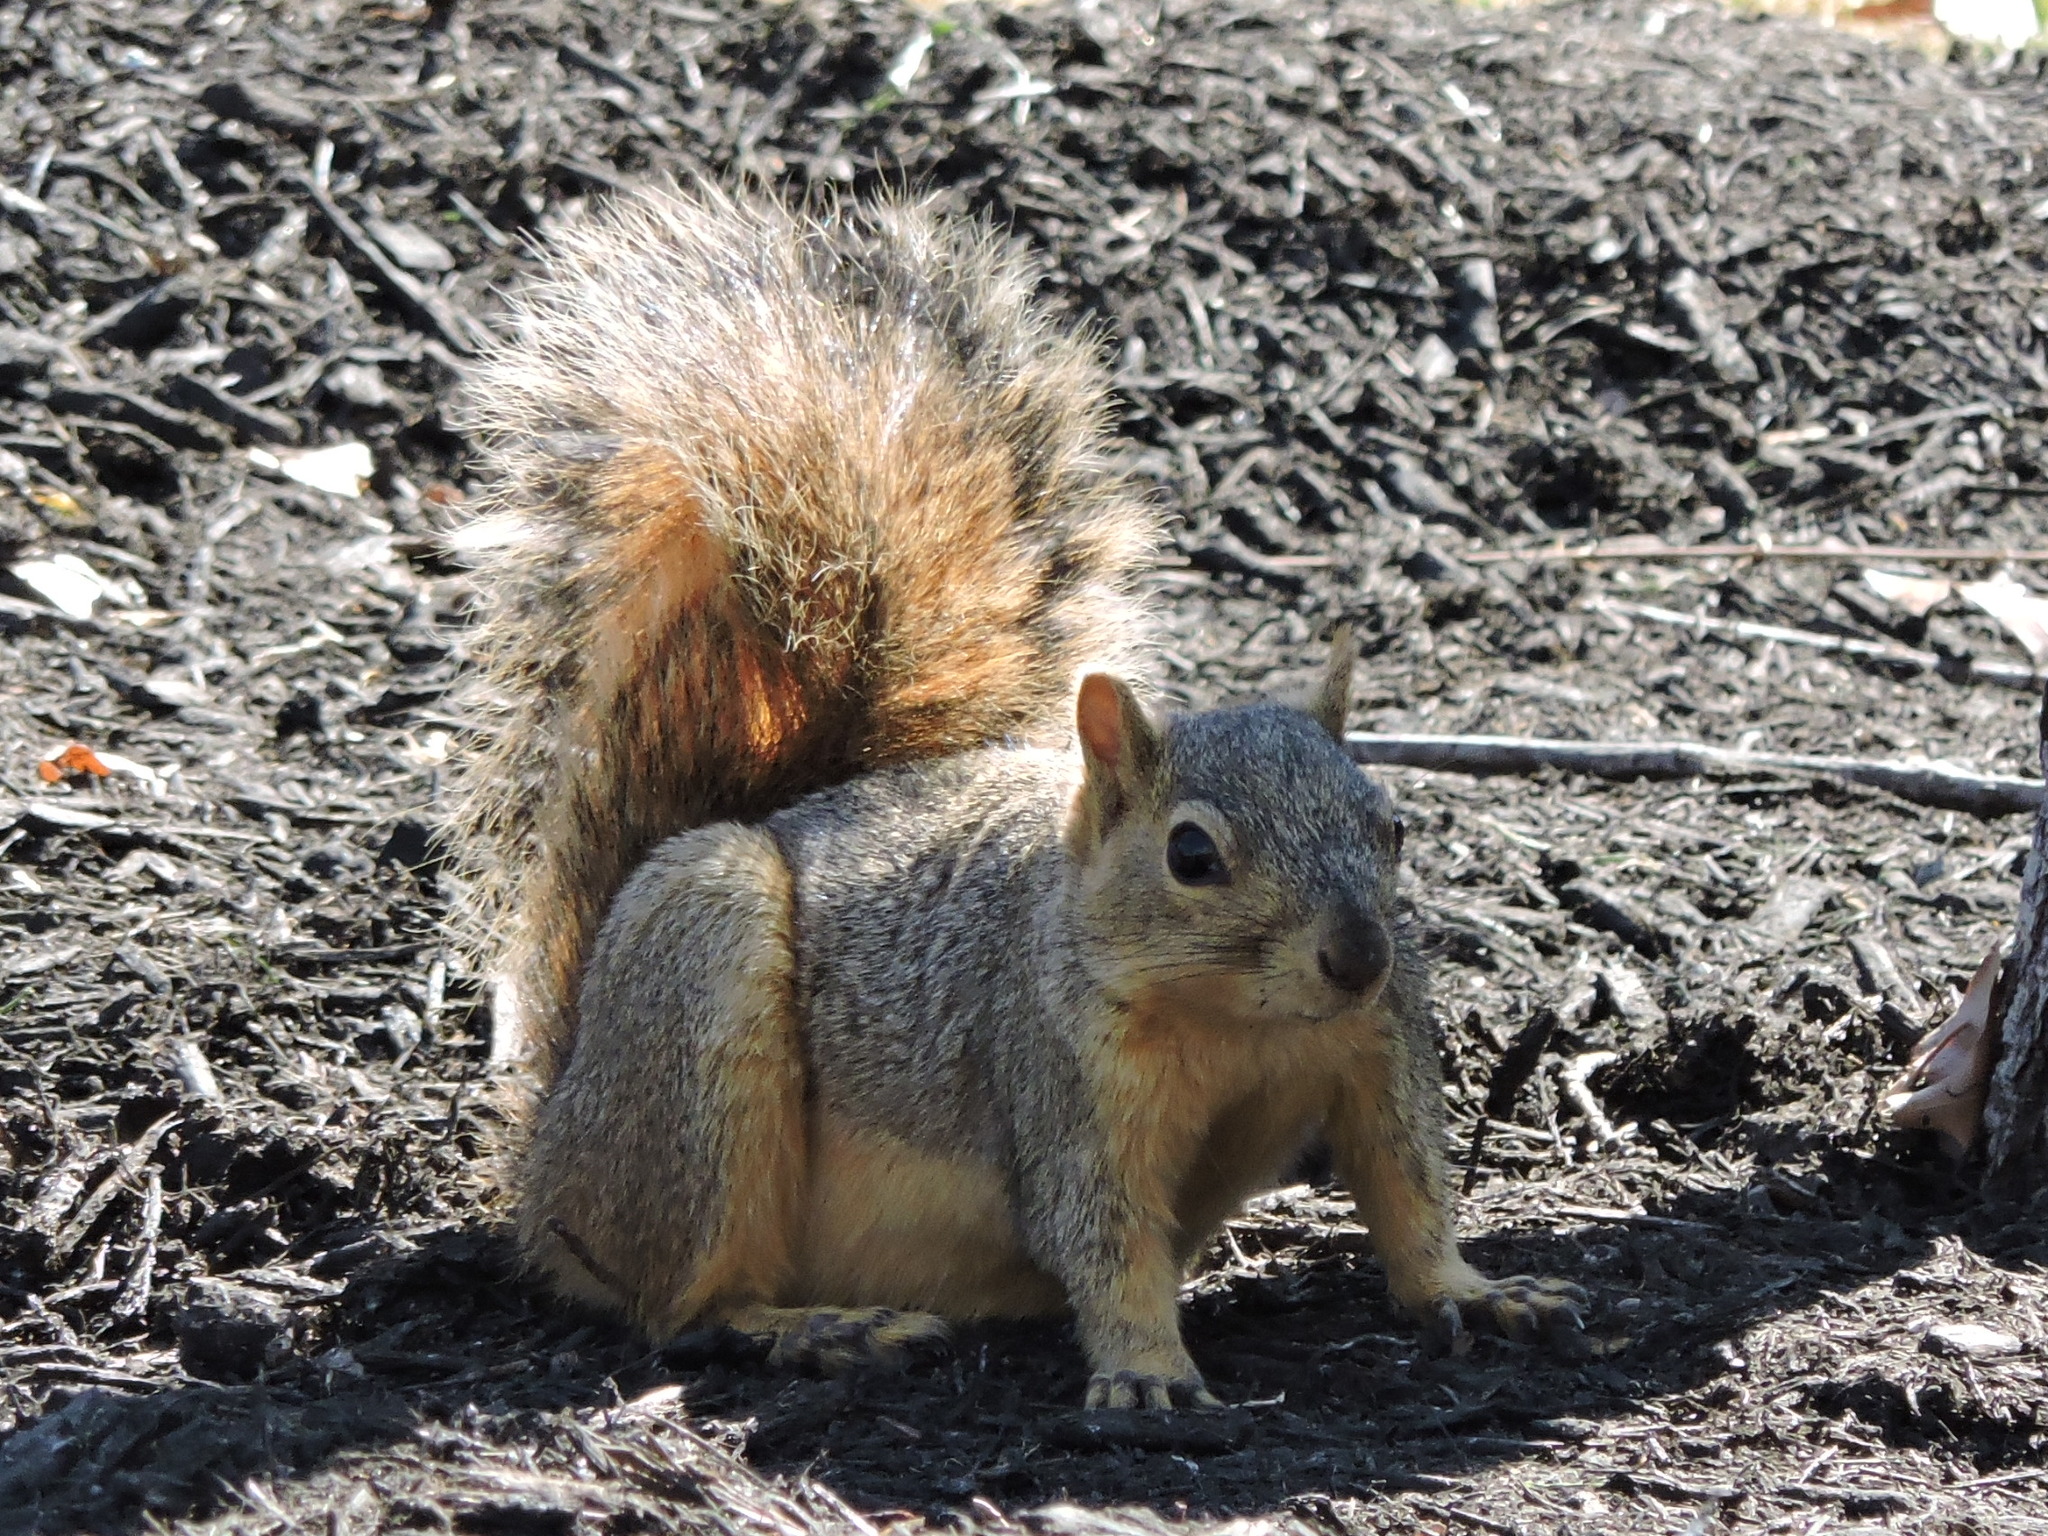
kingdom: Animalia
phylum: Chordata
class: Mammalia
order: Rodentia
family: Sciuridae
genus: Sciurus
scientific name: Sciurus niger
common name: Fox squirrel
